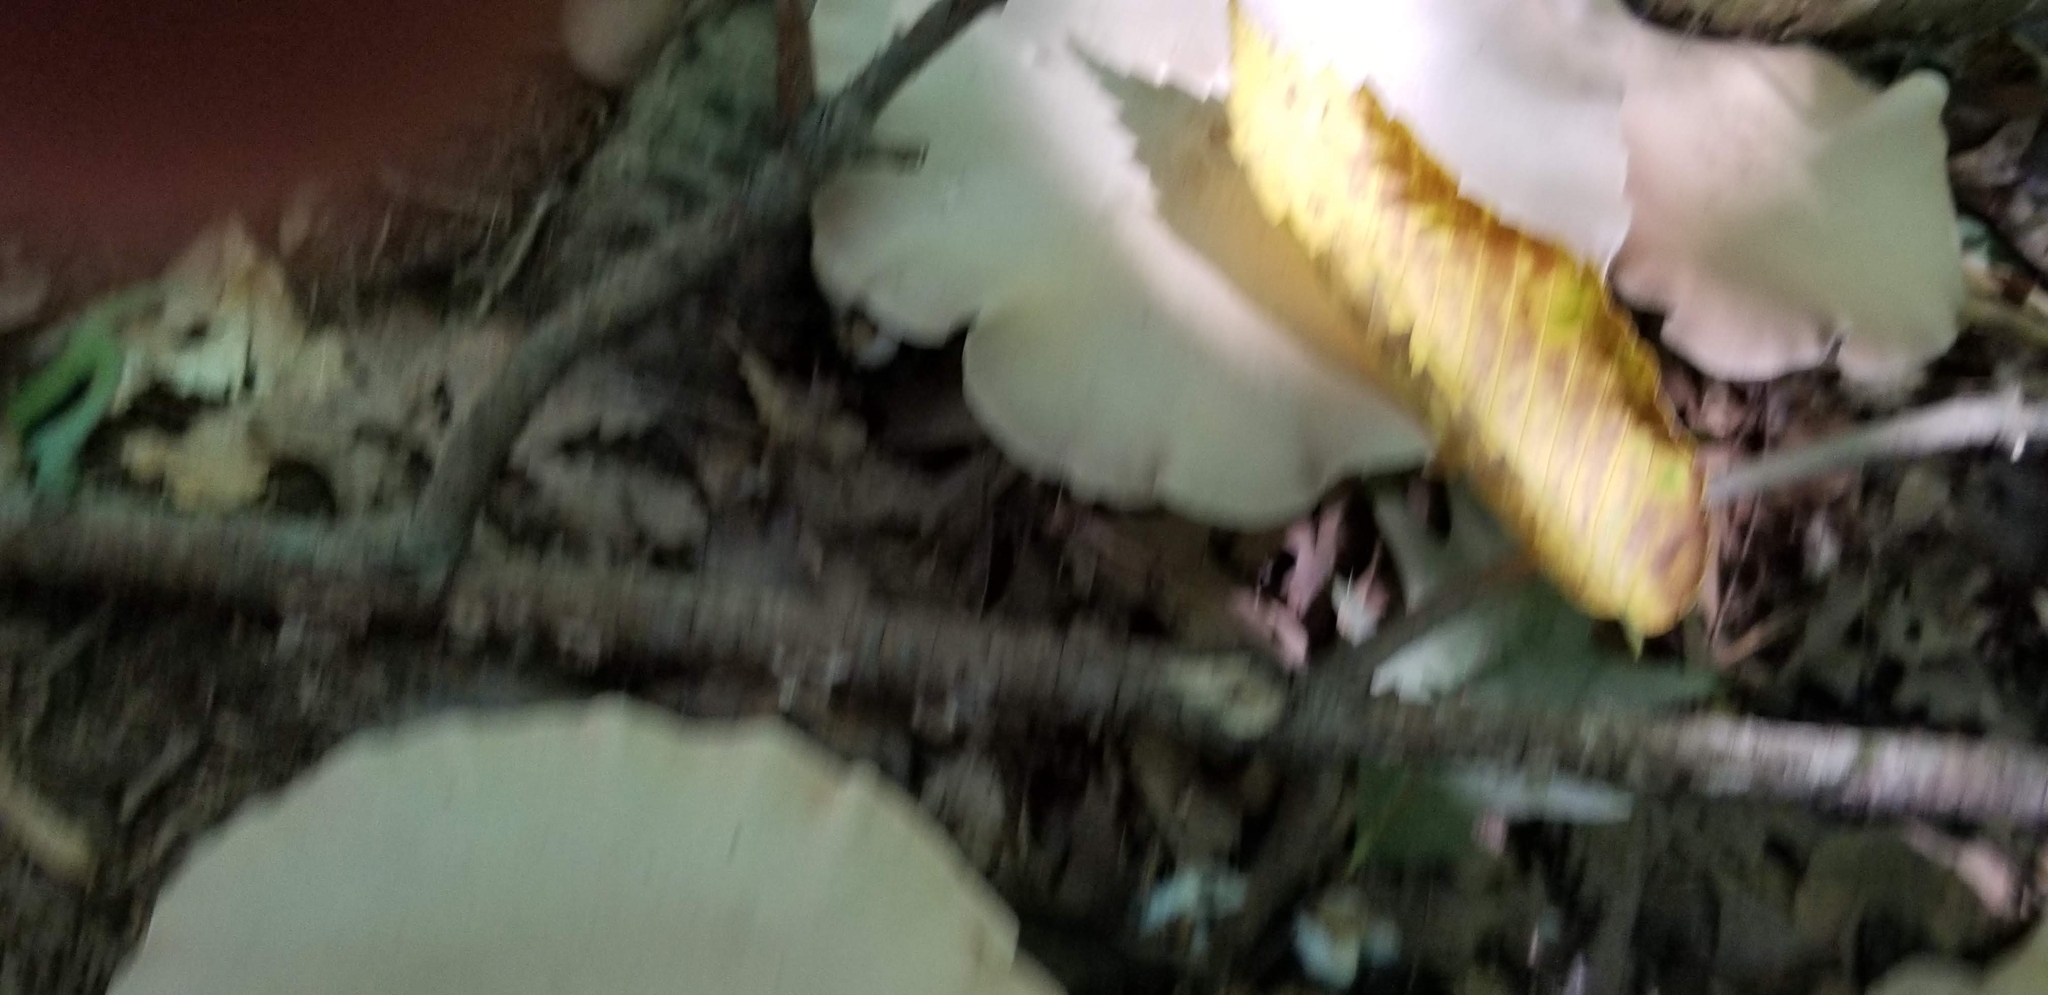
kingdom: Fungi
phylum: Basidiomycota
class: Agaricomycetes
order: Agaricales
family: Entolomataceae
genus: Entoloma
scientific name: Entoloma abortivum
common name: Aborted entoloma
